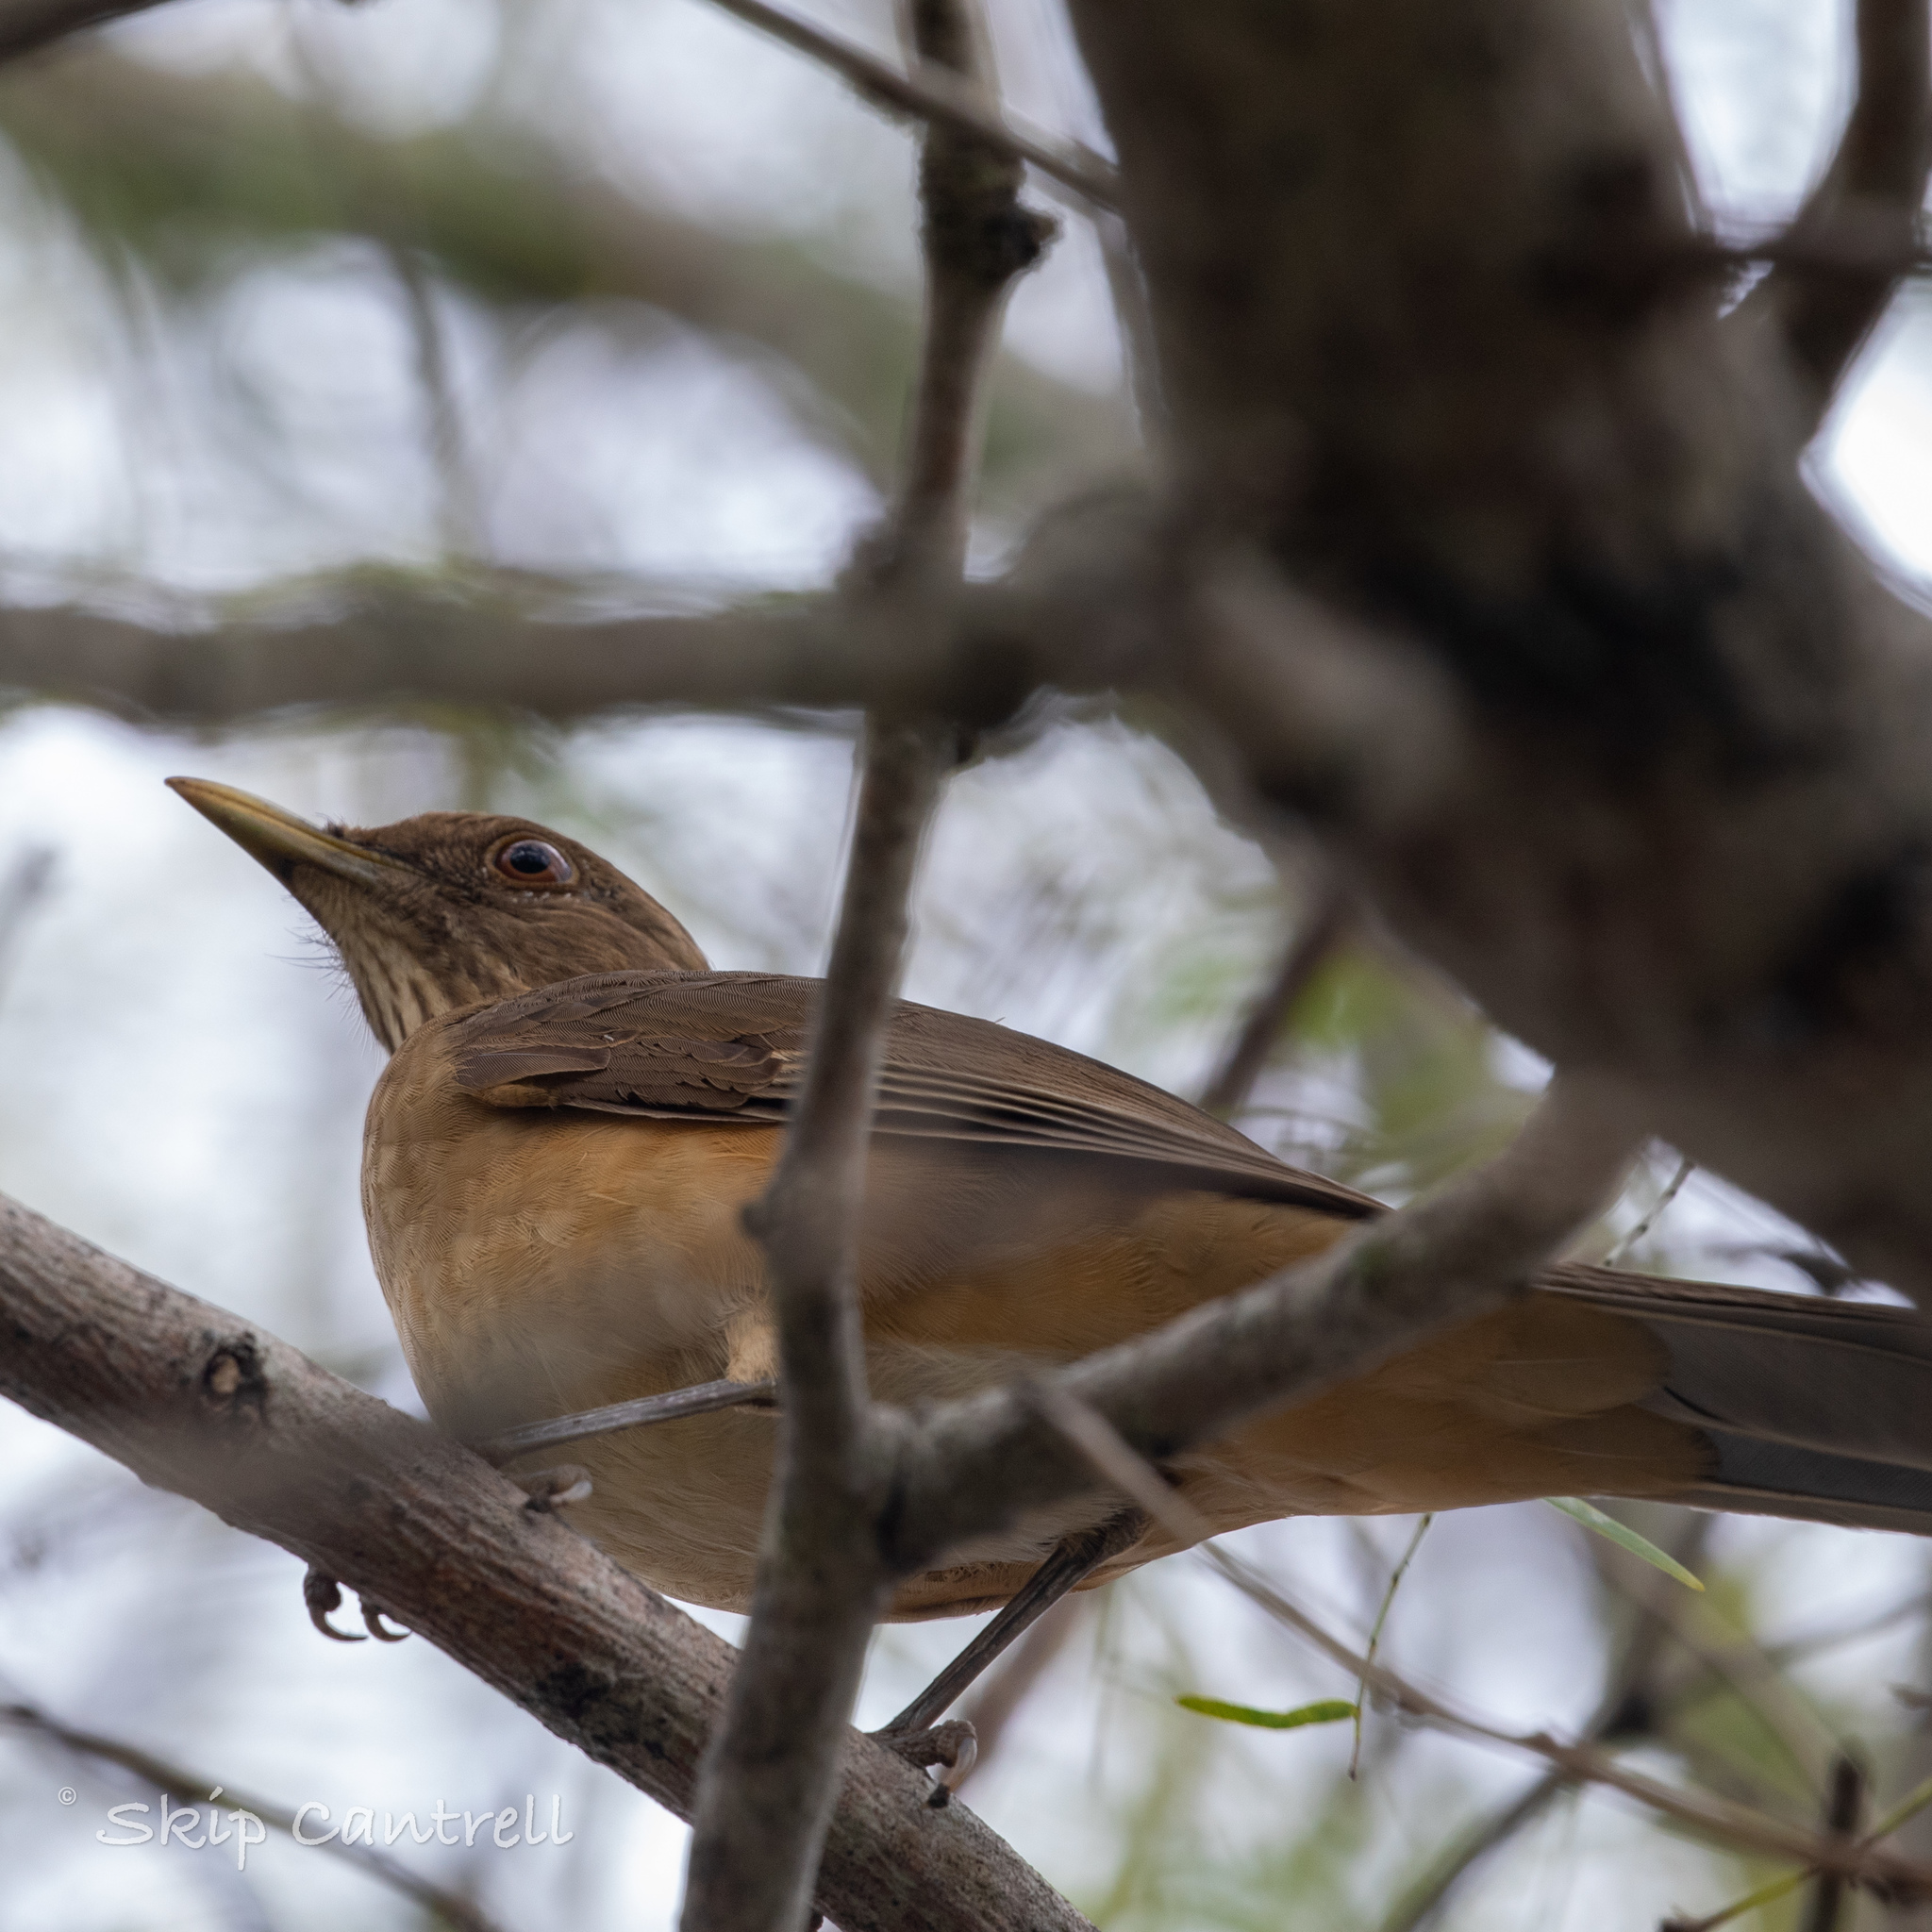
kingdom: Animalia
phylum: Chordata
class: Aves
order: Passeriformes
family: Turdidae
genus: Turdus
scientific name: Turdus grayi
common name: Clay-colored thrush
